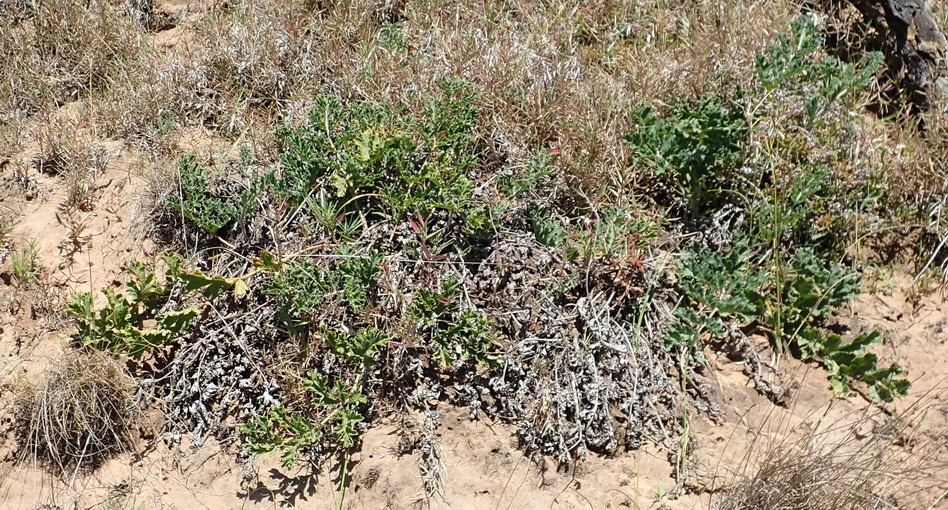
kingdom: Plantae
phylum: Tracheophyta
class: Magnoliopsida
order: Geraniales
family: Geraniaceae
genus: Pelargonium
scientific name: Pelargonium radulifolium
